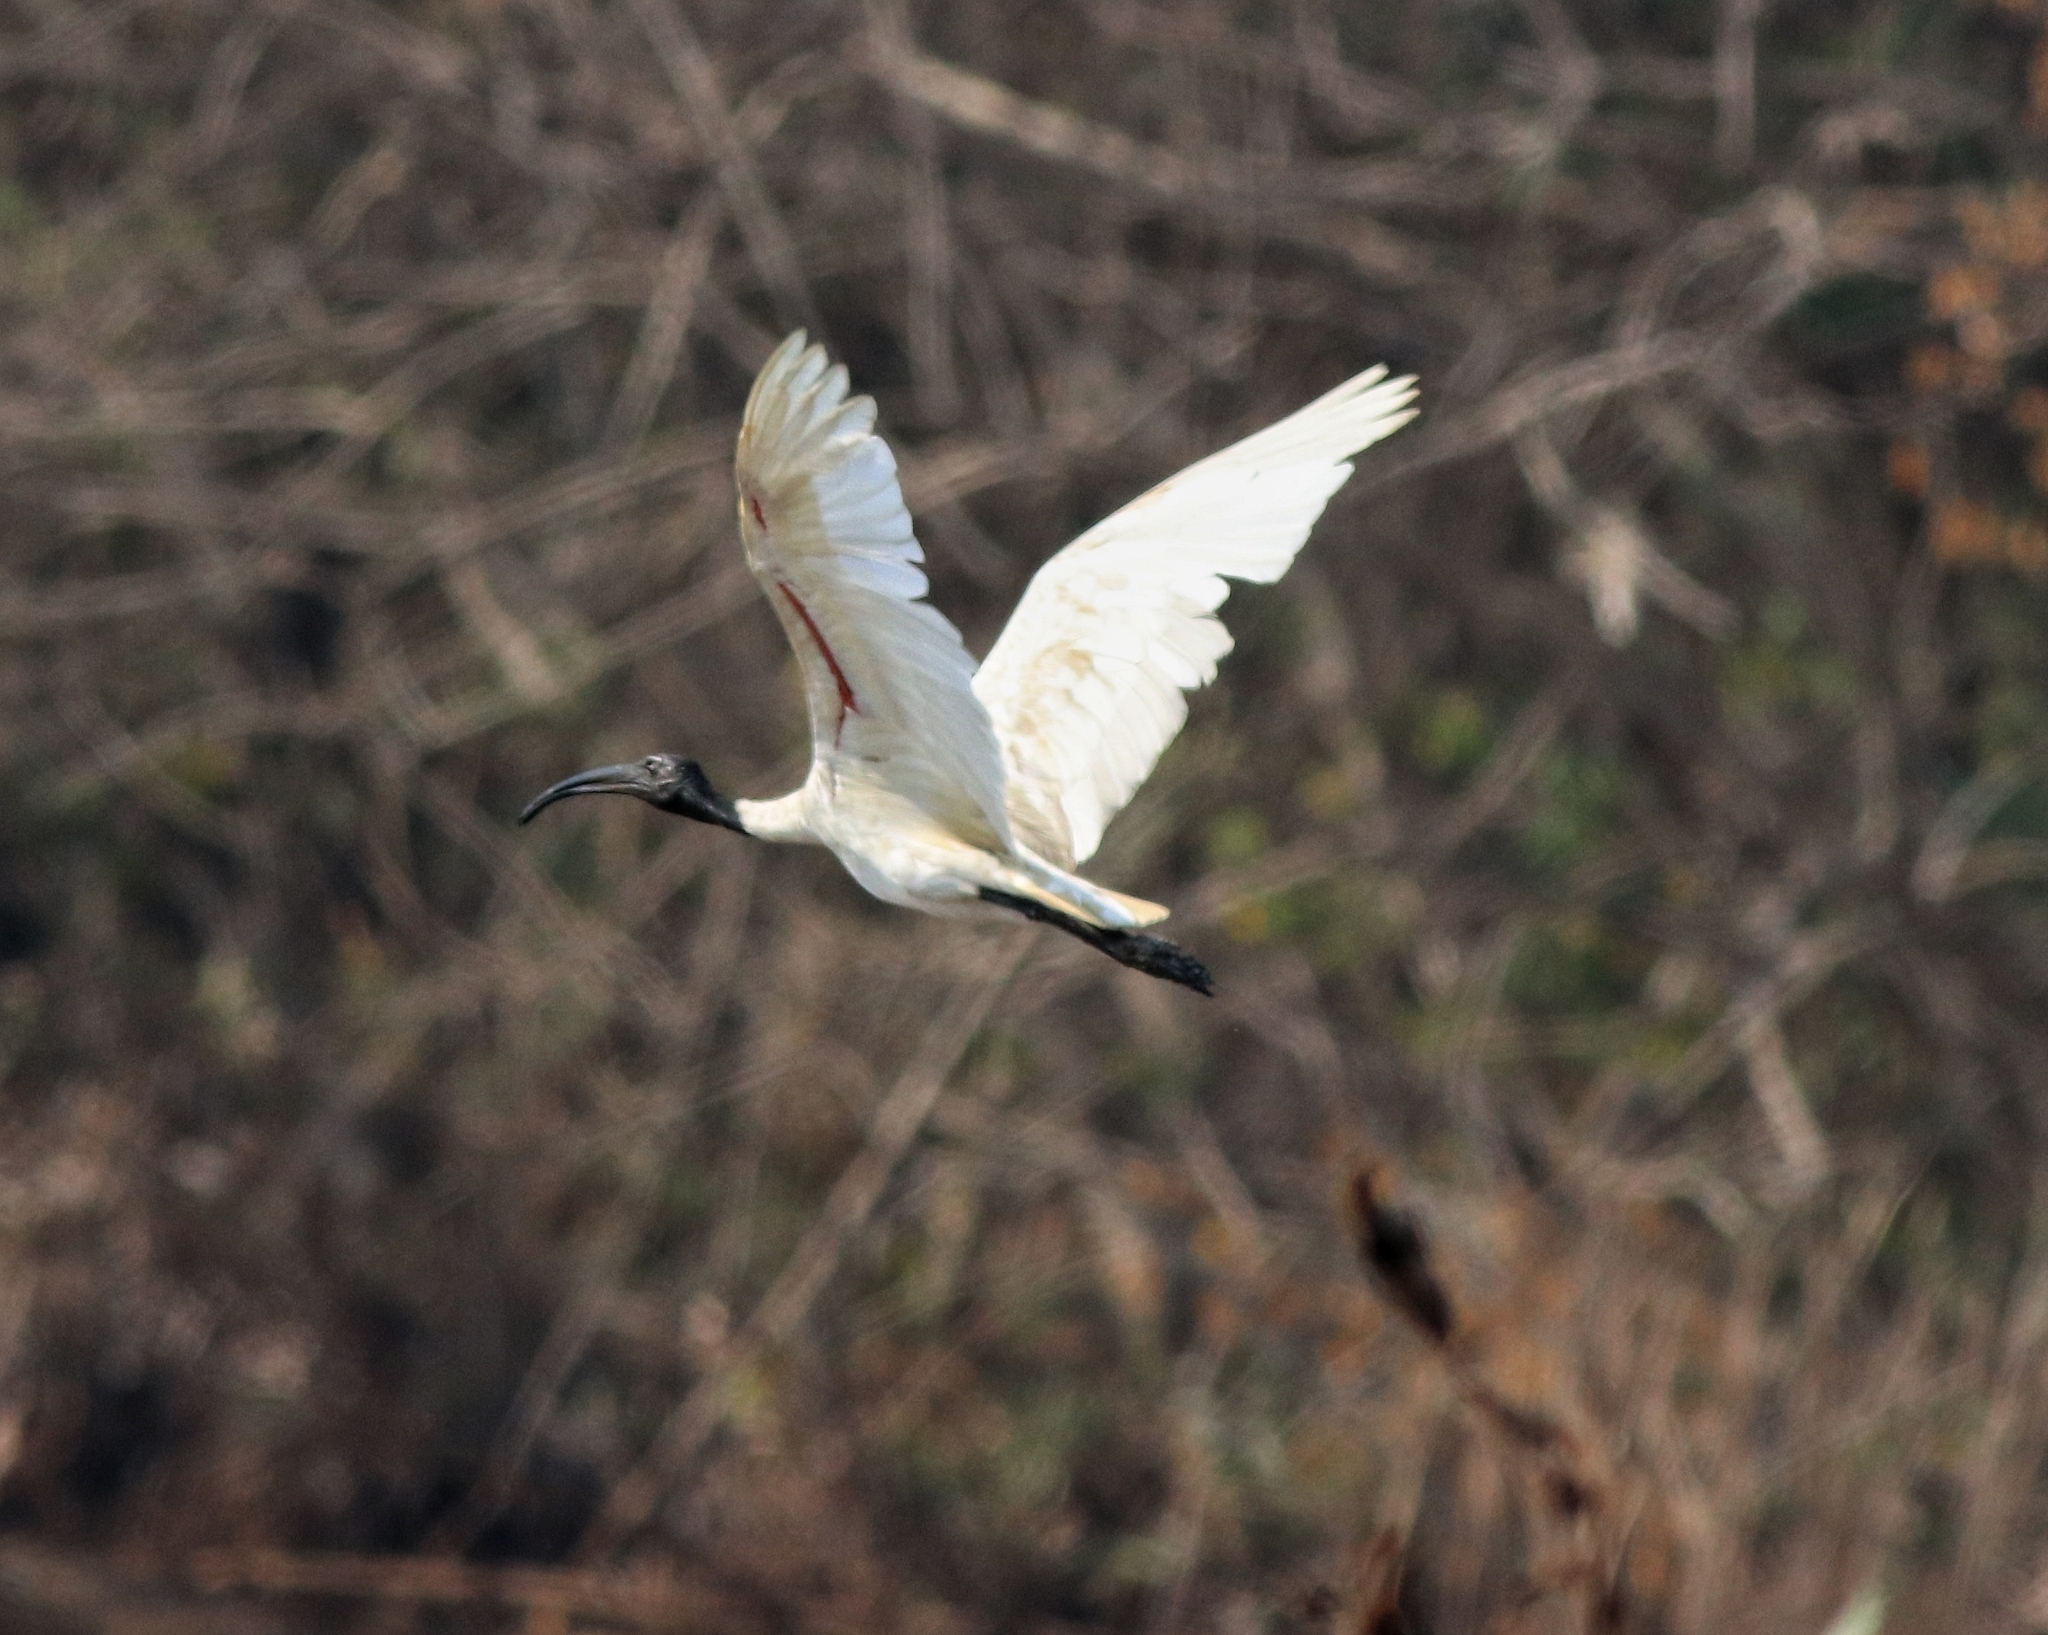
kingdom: Animalia
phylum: Chordata
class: Aves
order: Pelecaniformes
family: Threskiornithidae
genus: Threskiornis
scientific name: Threskiornis melanocephalus
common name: Black-headed ibis
